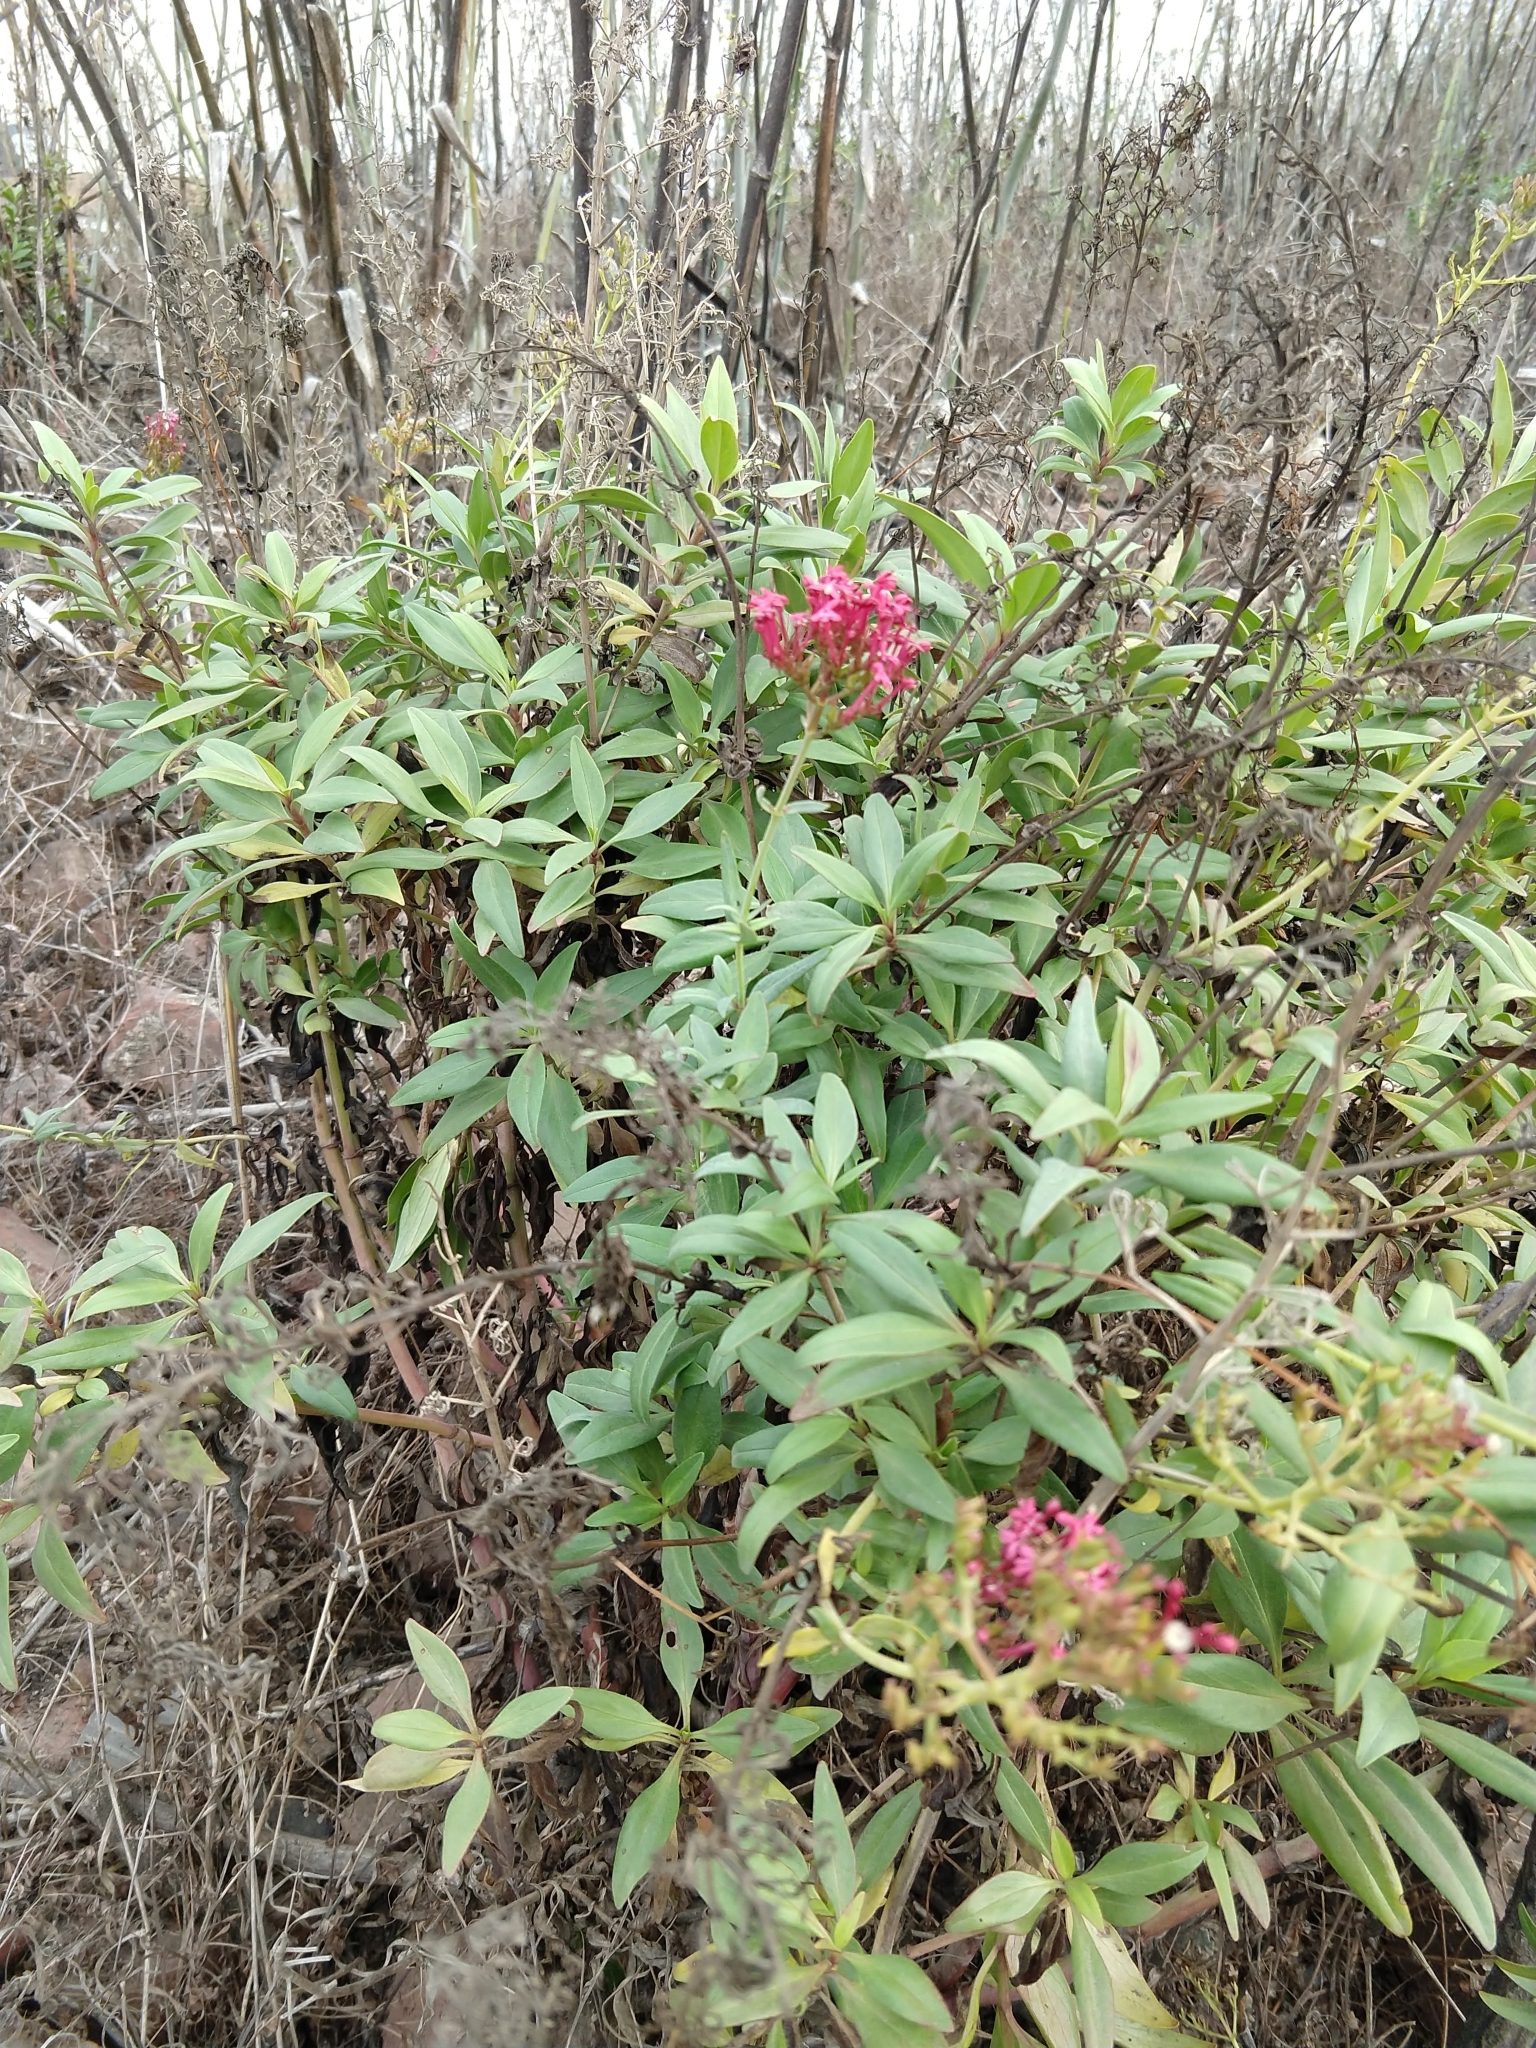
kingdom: Plantae
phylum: Tracheophyta
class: Magnoliopsida
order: Dipsacales
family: Caprifoliaceae
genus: Centranthus
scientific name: Centranthus ruber
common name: Red valerian
